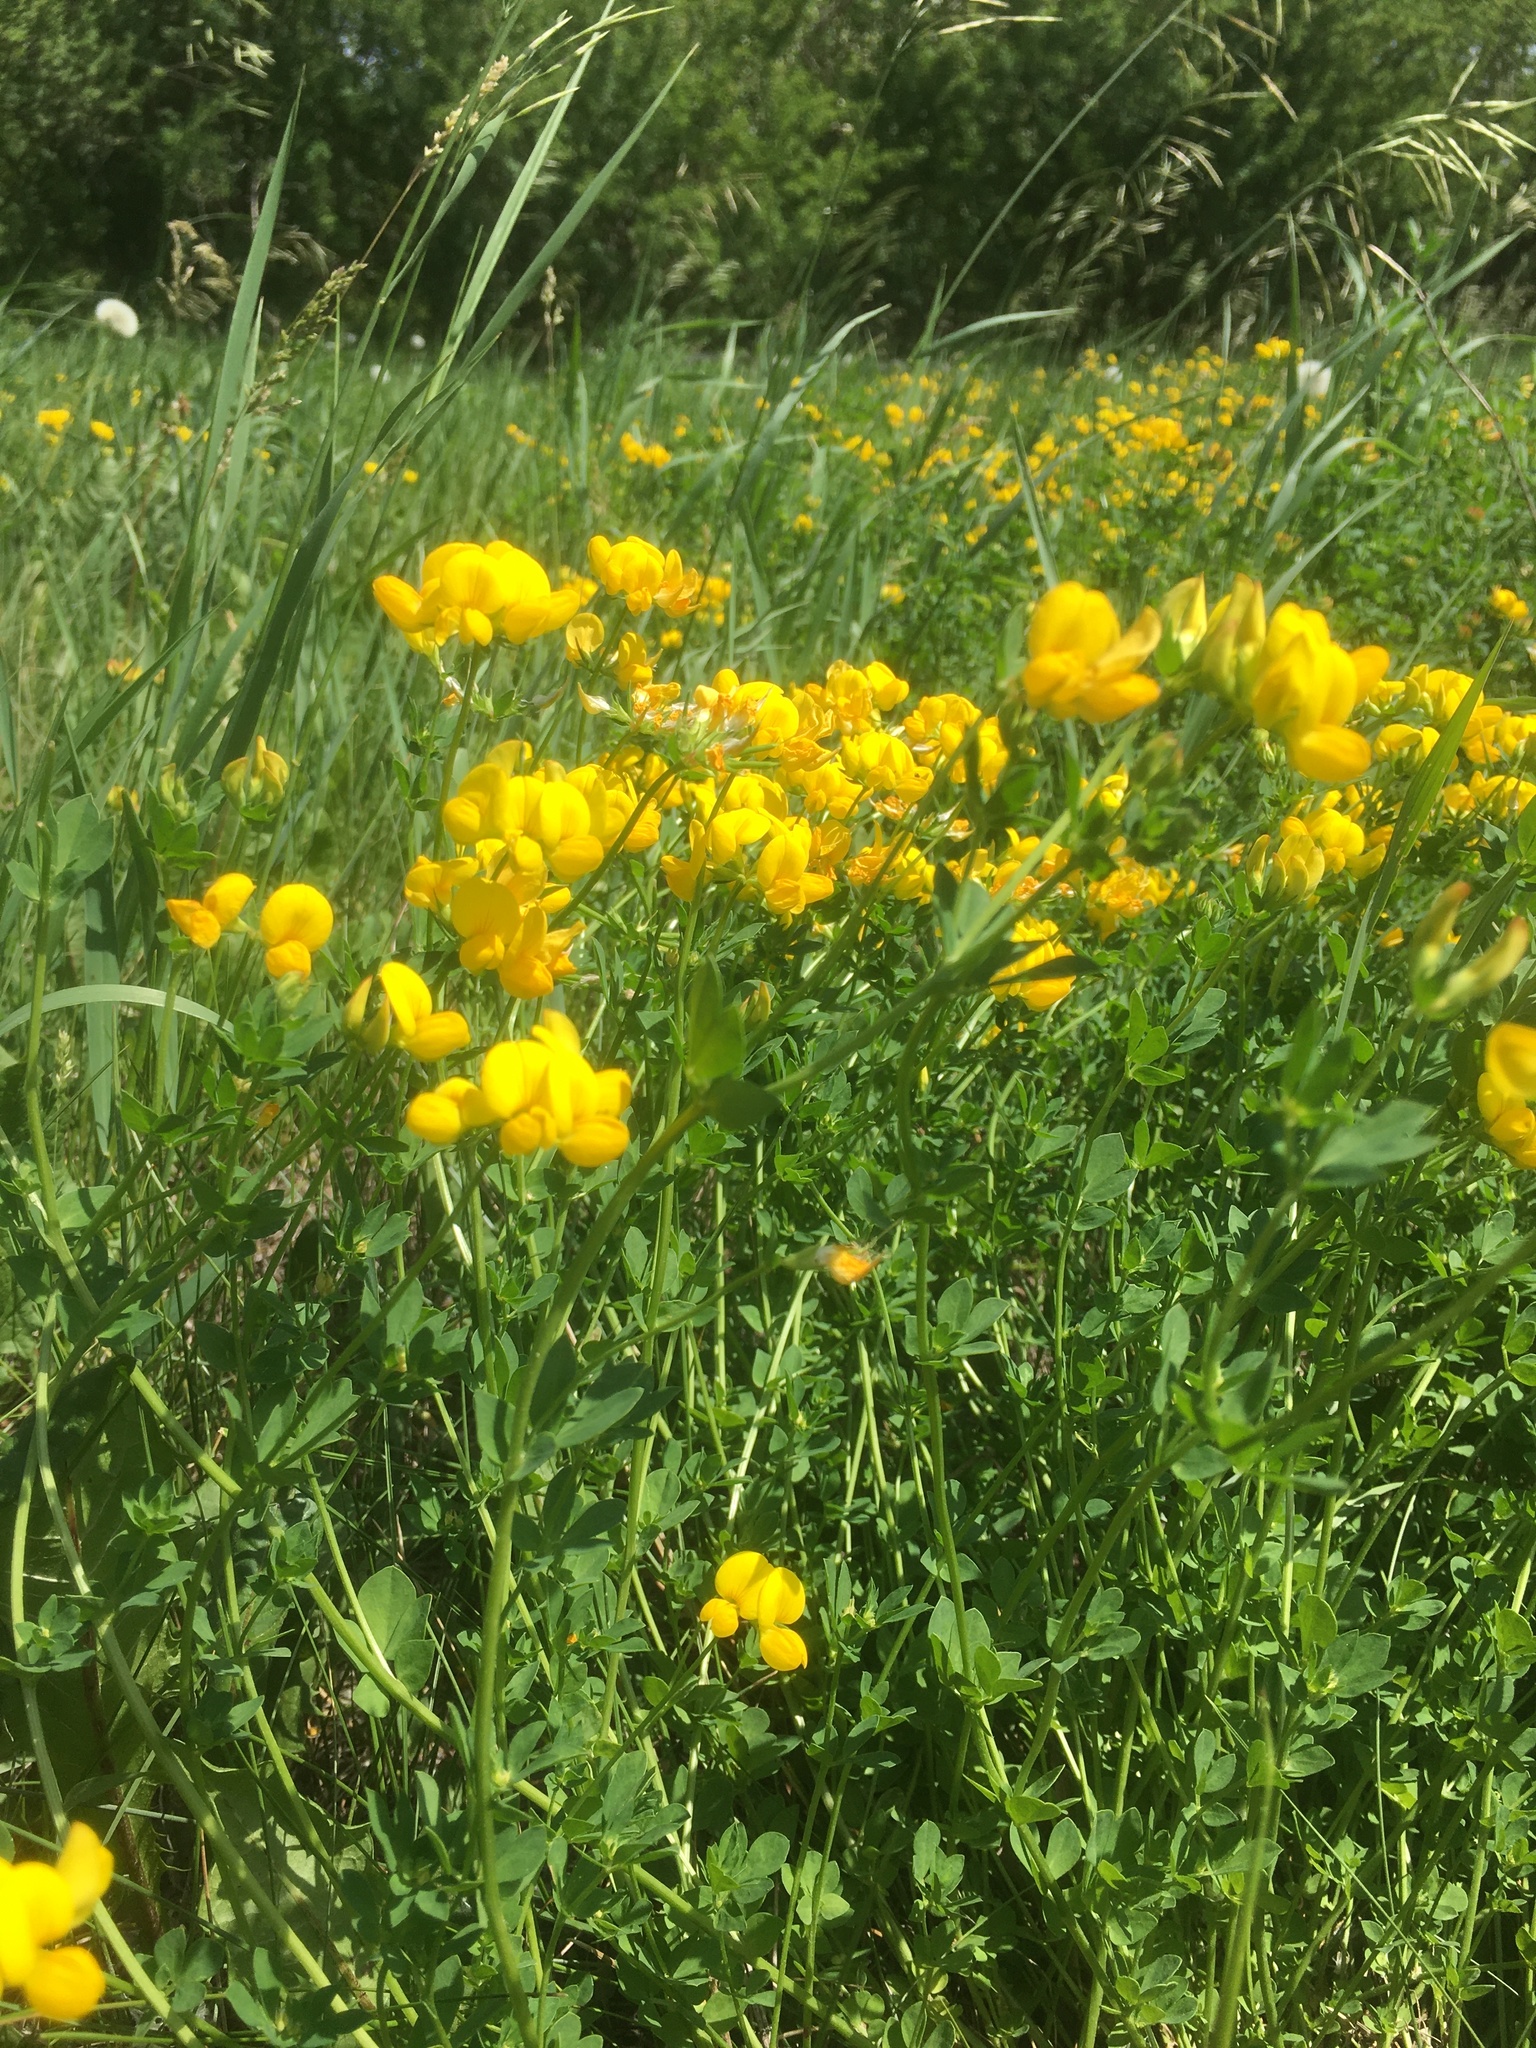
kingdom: Plantae
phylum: Tracheophyta
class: Magnoliopsida
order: Fabales
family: Fabaceae
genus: Lotus
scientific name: Lotus corniculatus
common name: Common bird's-foot-trefoil
